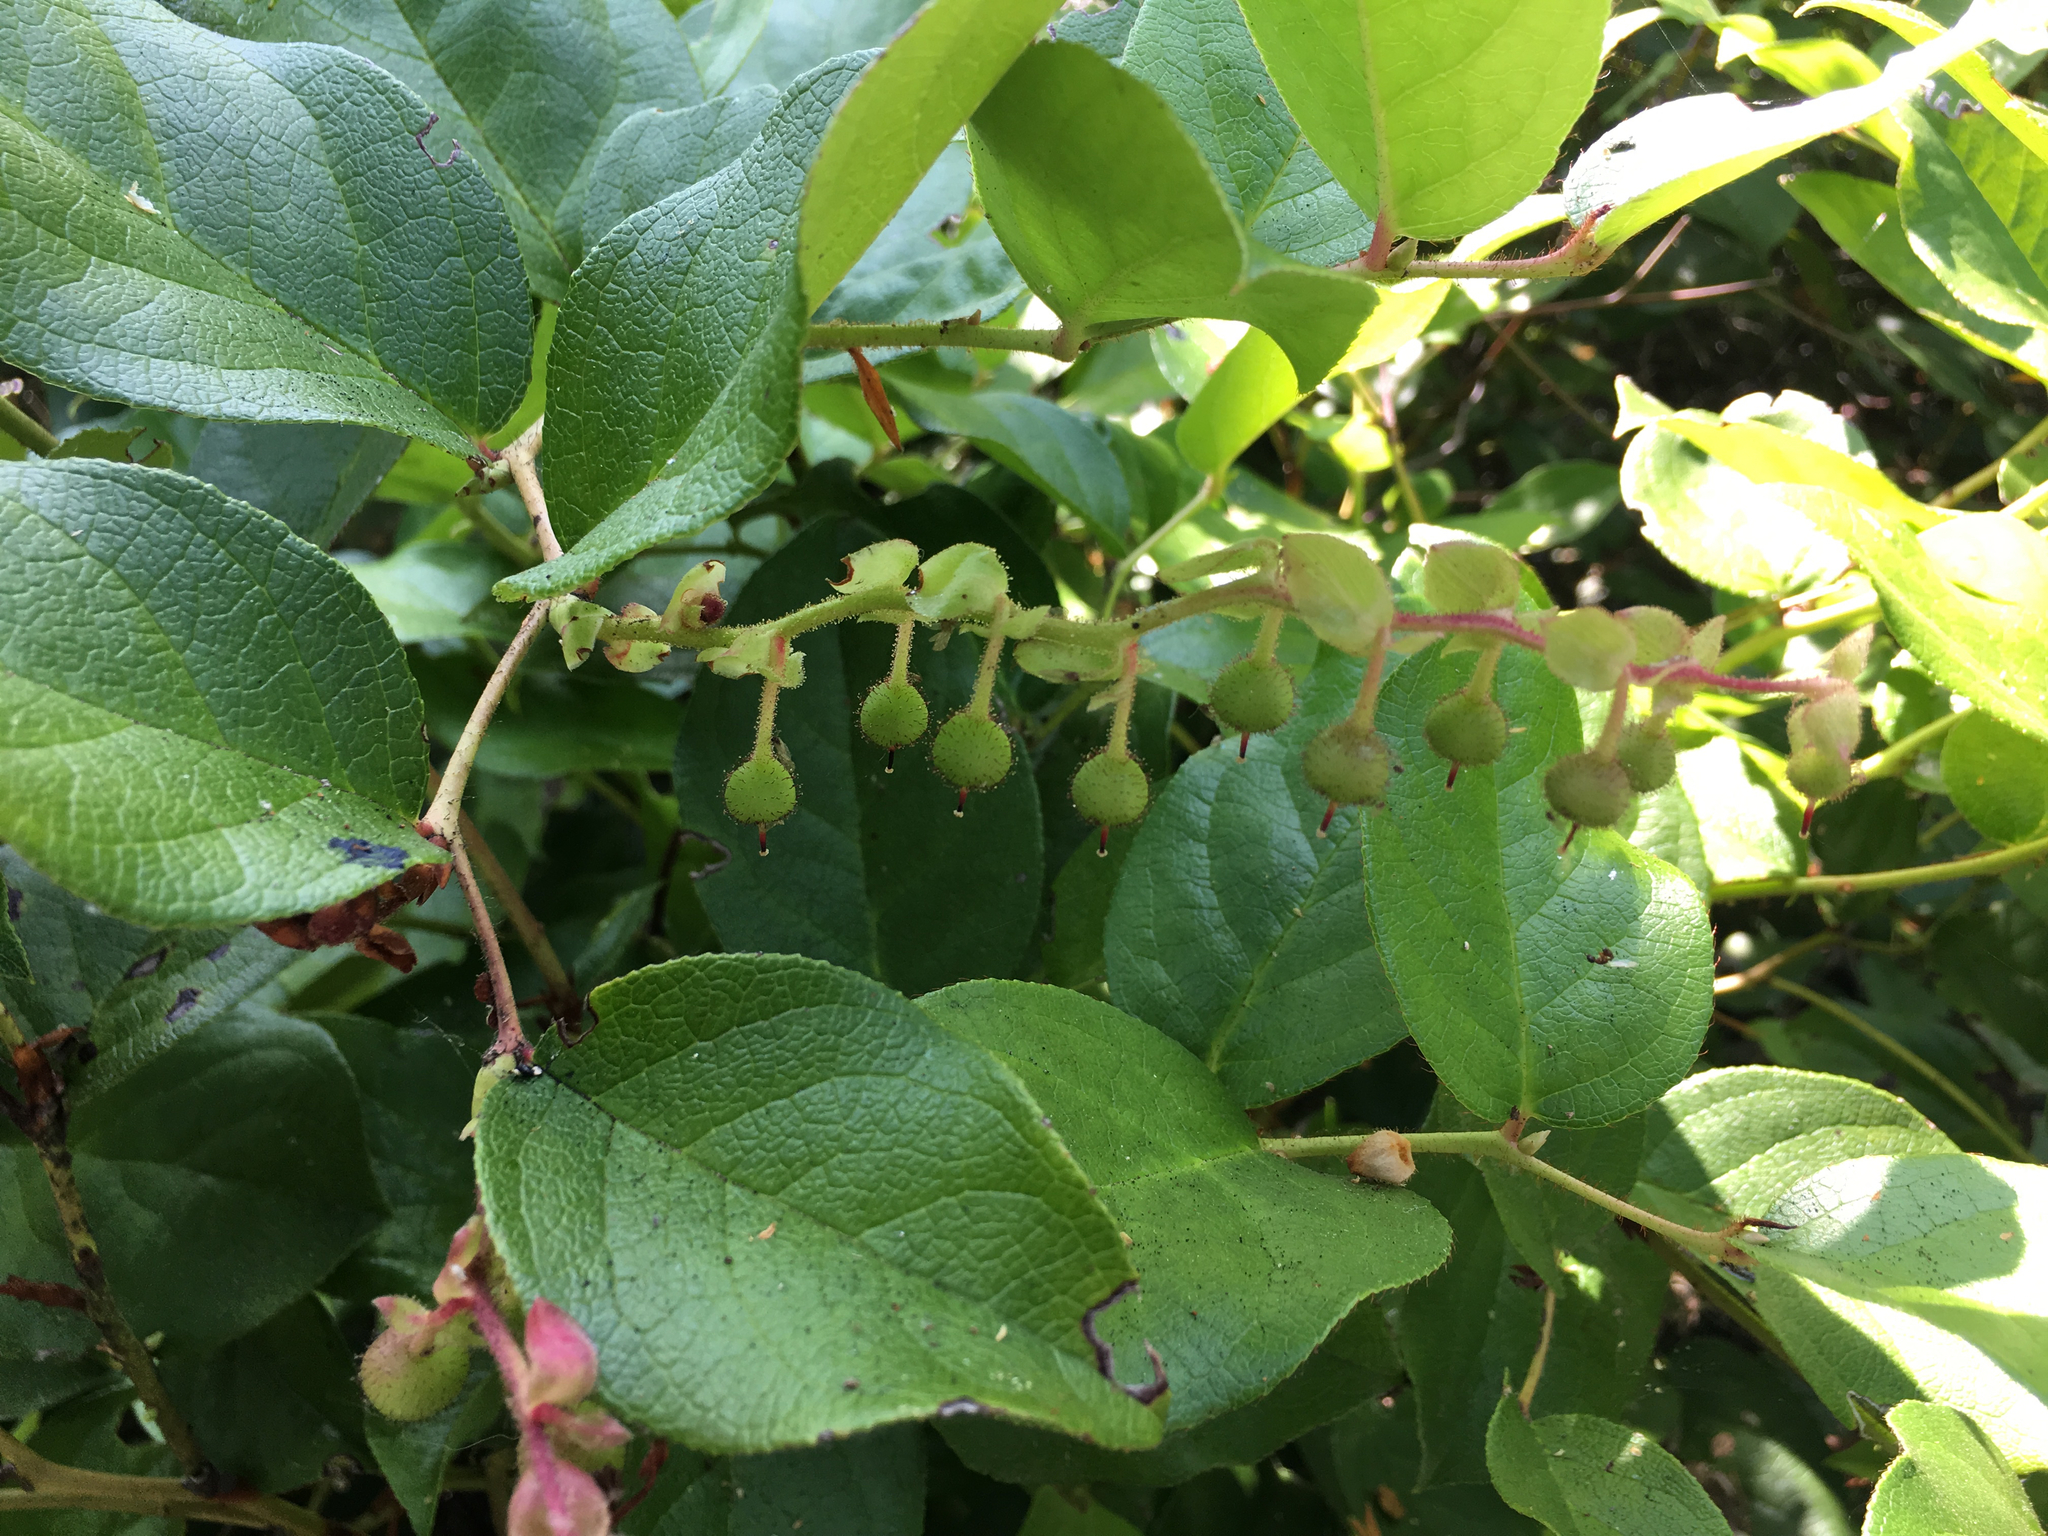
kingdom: Plantae
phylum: Tracheophyta
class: Magnoliopsida
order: Ericales
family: Ericaceae
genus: Gaultheria
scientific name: Gaultheria shallon
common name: Shallon
